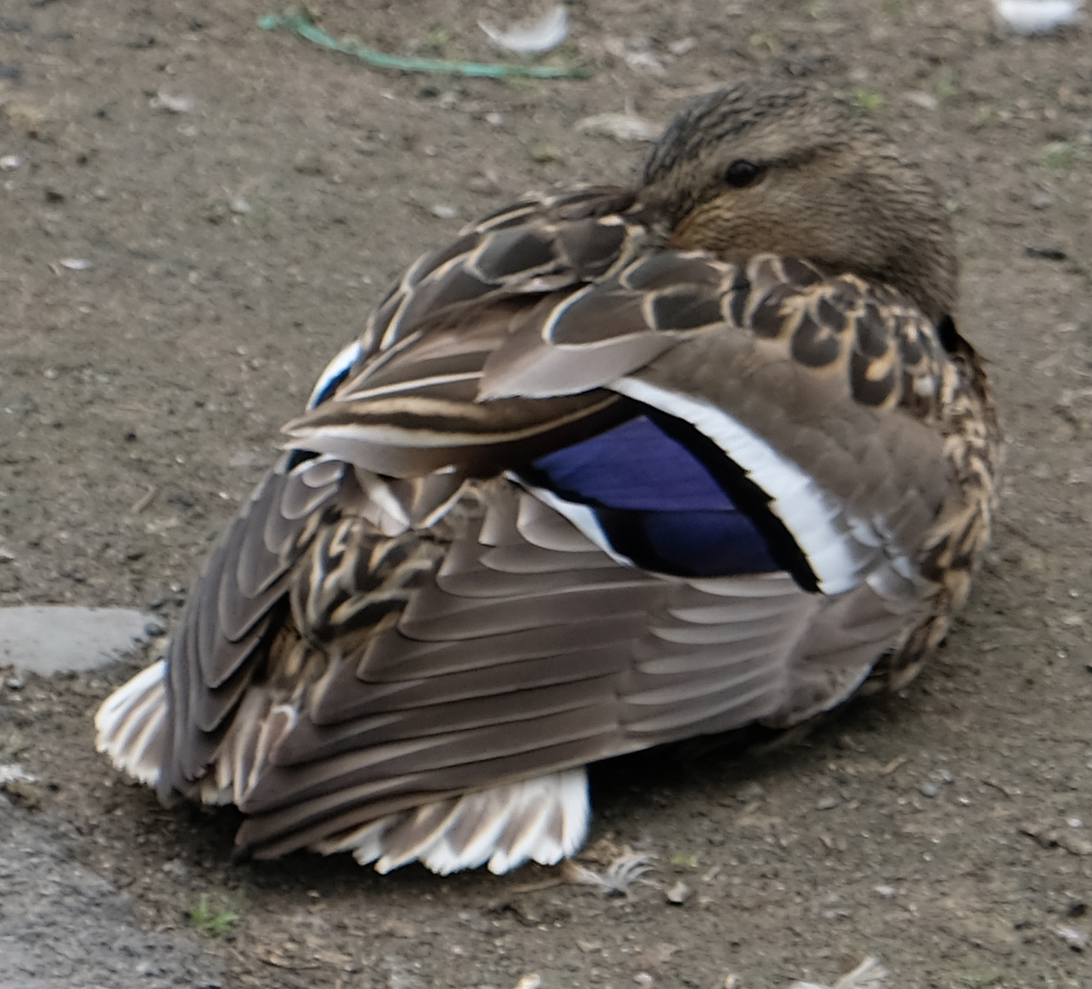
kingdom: Animalia
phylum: Chordata
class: Aves
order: Anseriformes
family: Anatidae
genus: Anas
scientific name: Anas platyrhynchos
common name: Mallard
